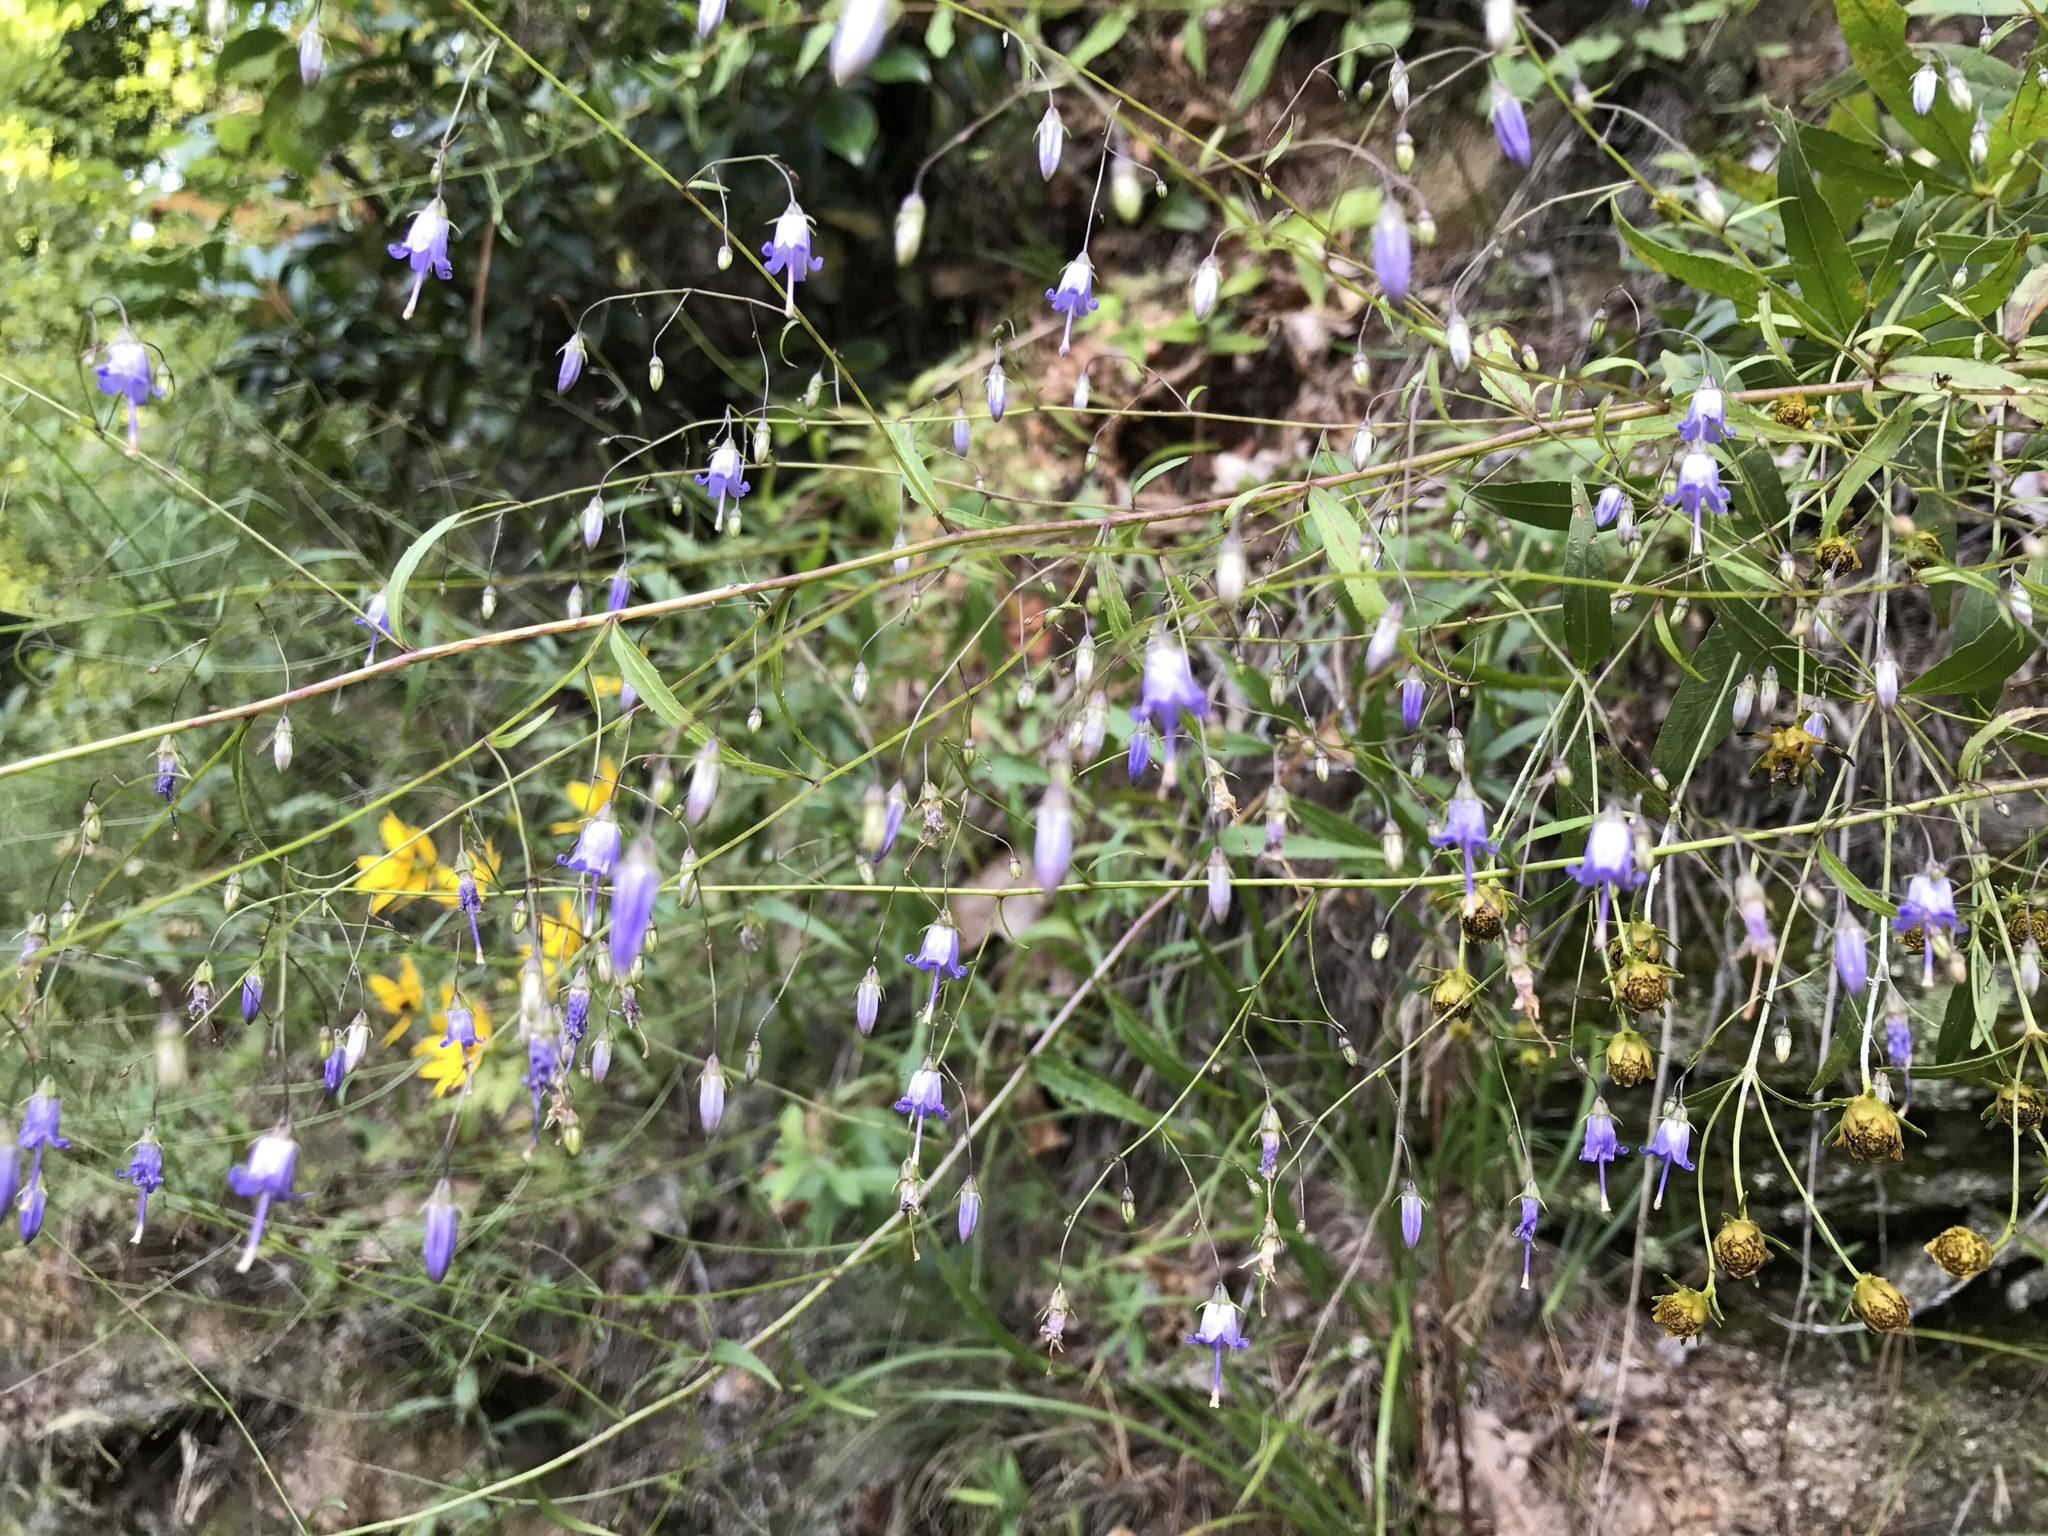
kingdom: Plantae
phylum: Tracheophyta
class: Magnoliopsida
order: Asterales
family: Campanulaceae
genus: Campanula
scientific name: Campanula divaricata
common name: Appalachian bellflower
